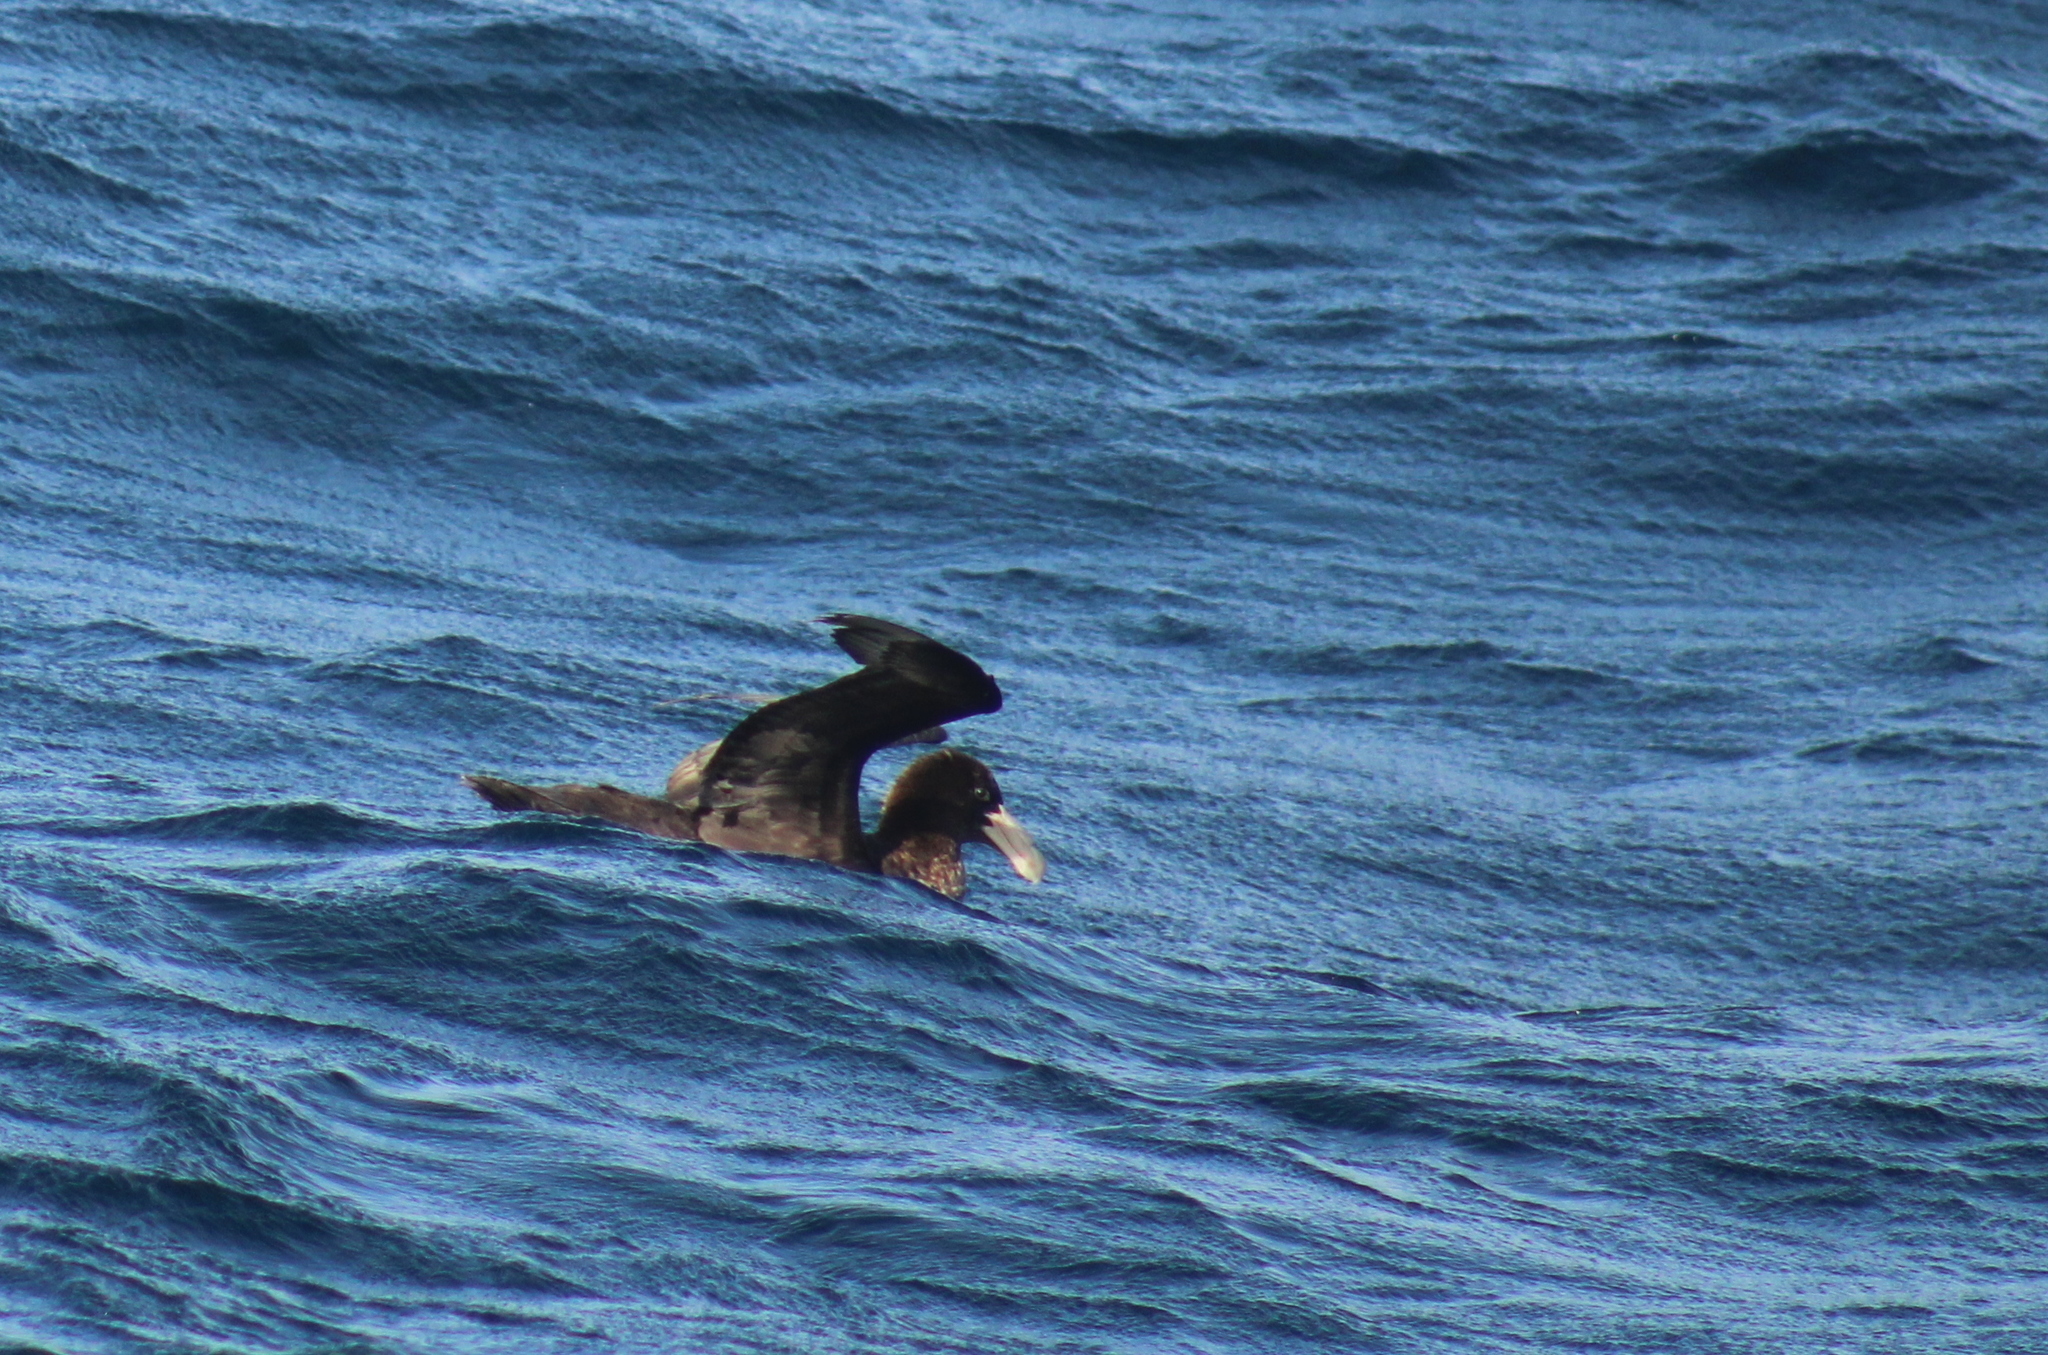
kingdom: Animalia
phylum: Chordata
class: Aves
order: Procellariiformes
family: Procellariidae
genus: Macronectes
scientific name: Macronectes giganteus
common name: Southern giant petrel
